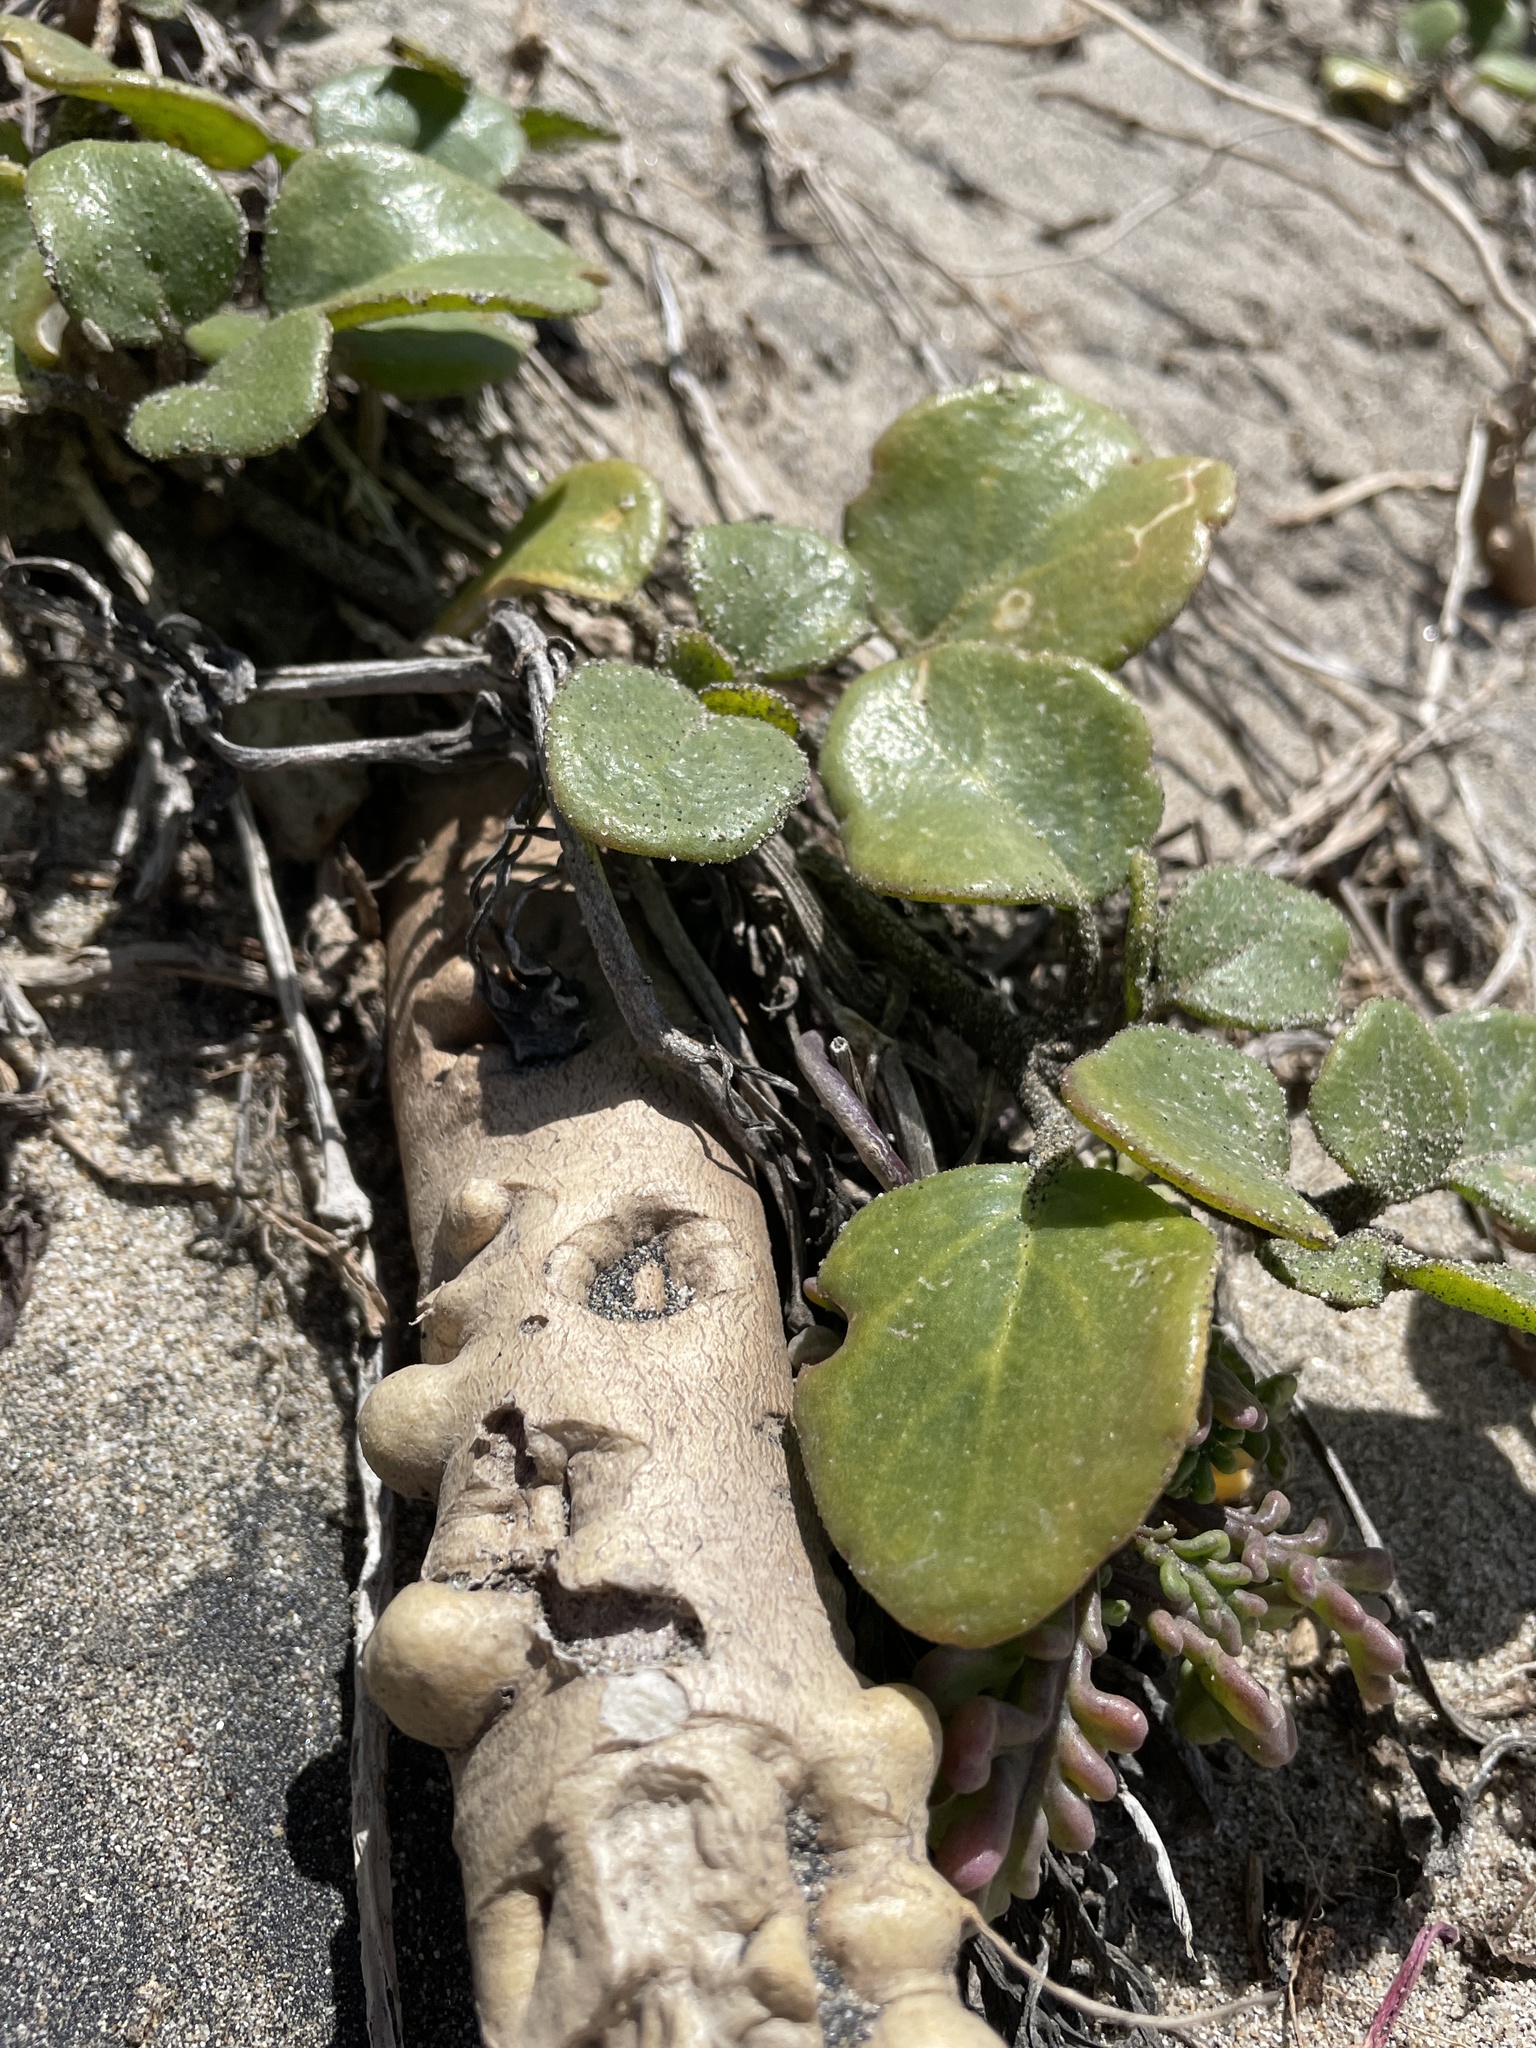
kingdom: Plantae
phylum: Tracheophyta
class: Magnoliopsida
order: Caryophyllales
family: Nyctaginaceae
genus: Abronia
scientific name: Abronia latifolia
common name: Yellow sand-verbena
